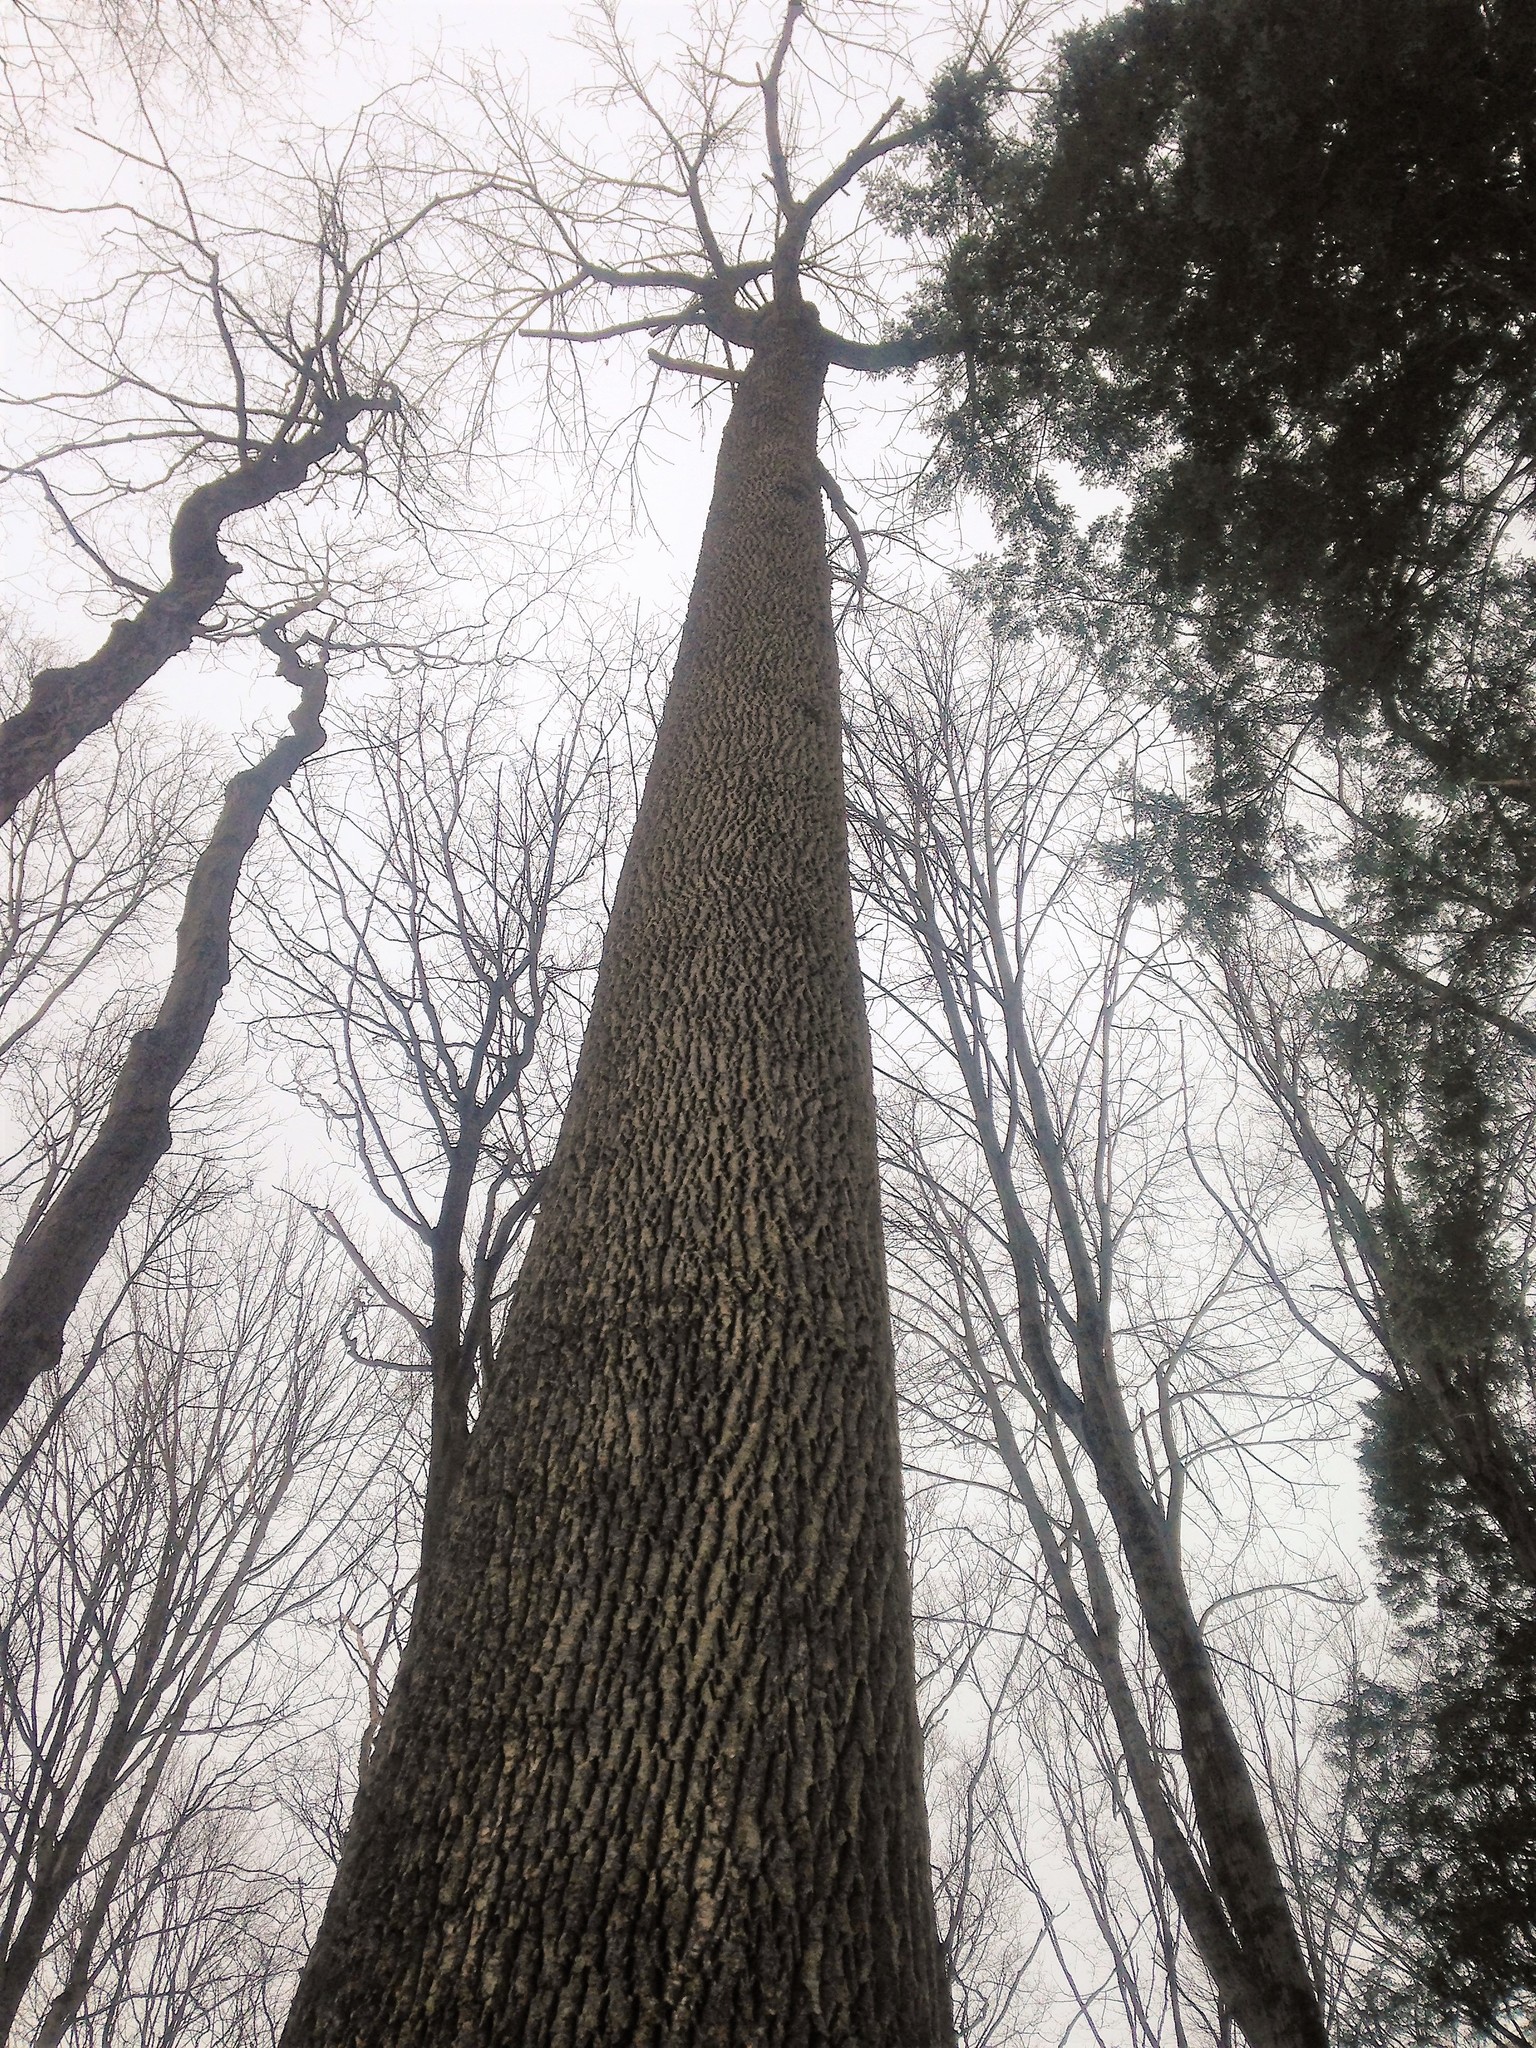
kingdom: Plantae
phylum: Tracheophyta
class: Magnoliopsida
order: Lamiales
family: Oleaceae
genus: Fraxinus
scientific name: Fraxinus americana
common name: White ash
